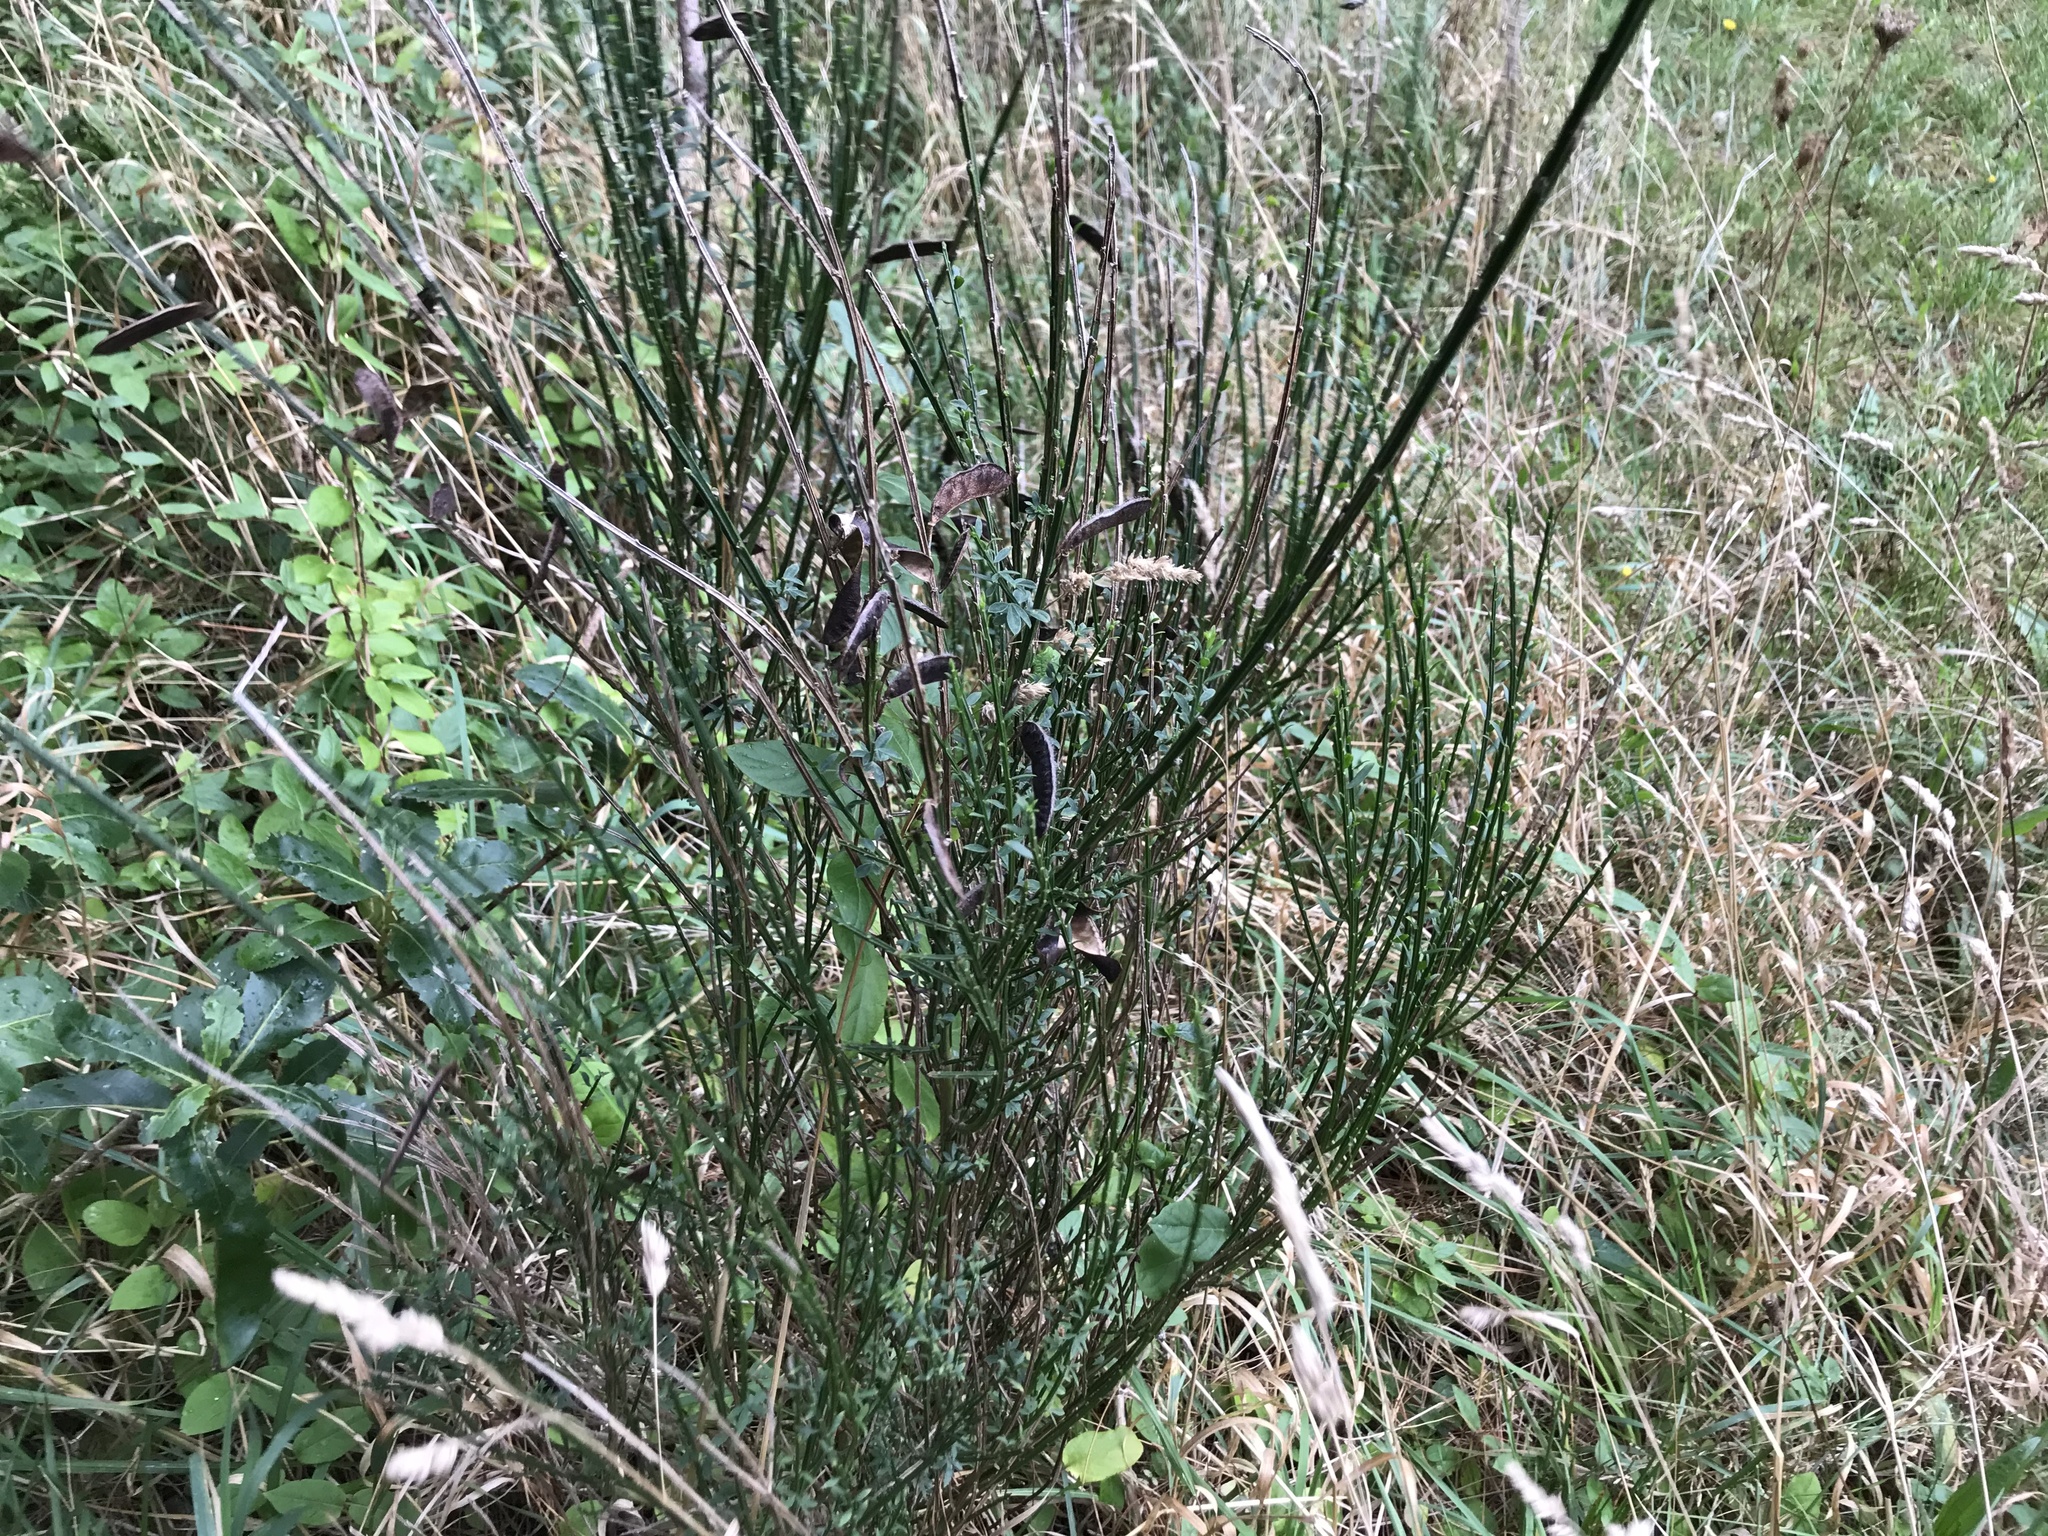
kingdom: Plantae
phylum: Tracheophyta
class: Magnoliopsida
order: Fabales
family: Fabaceae
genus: Cytisus
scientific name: Cytisus scoparius
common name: Scotch broom
